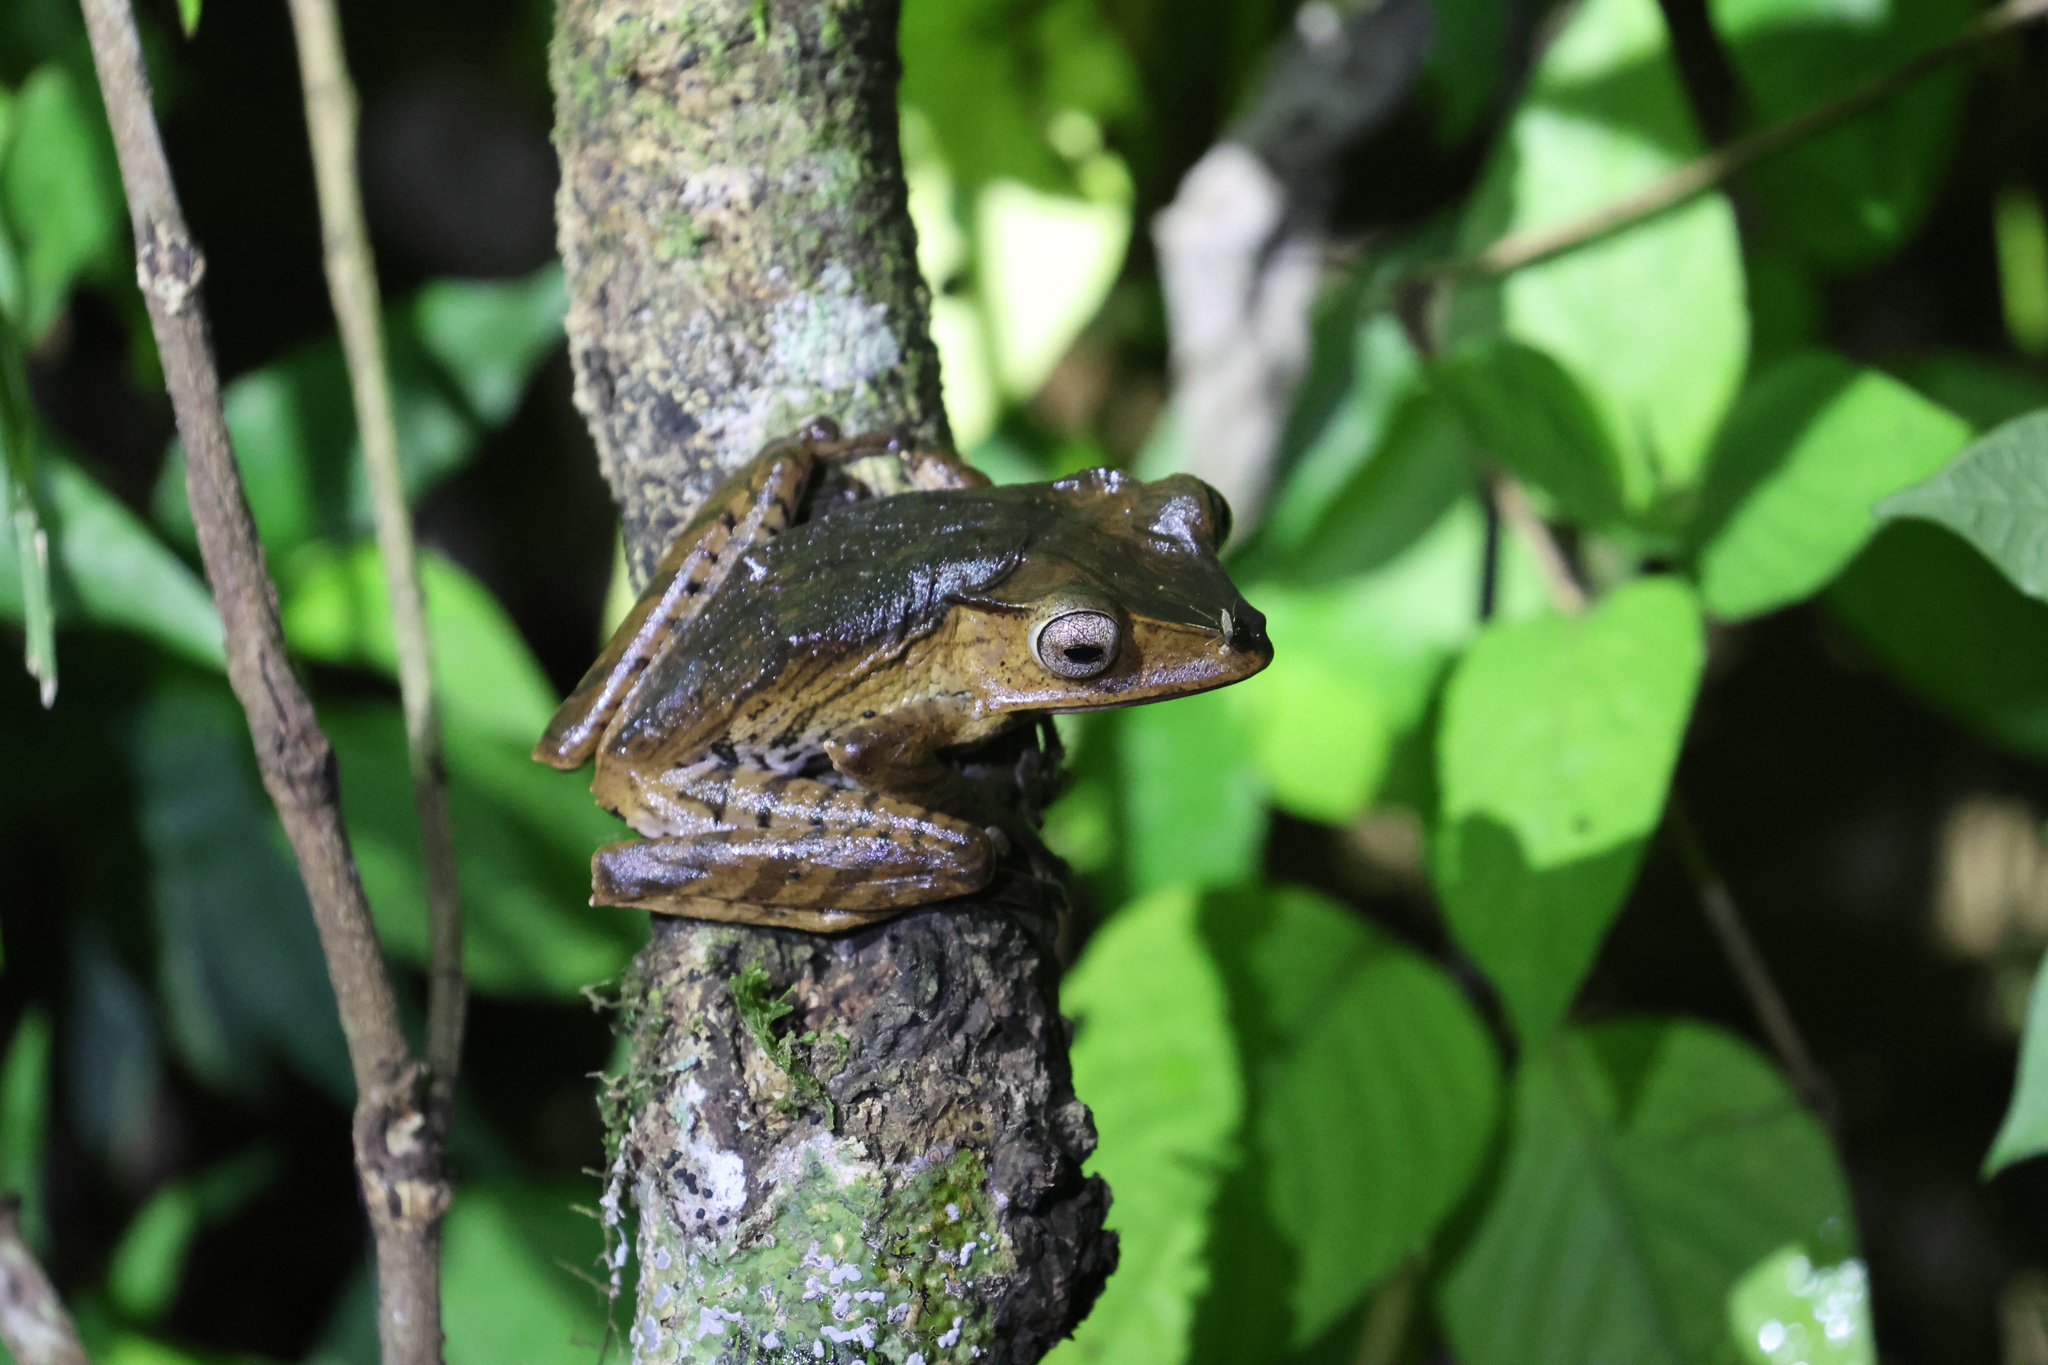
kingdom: Animalia
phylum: Chordata
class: Amphibia
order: Anura
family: Rhacophoridae
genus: Polypedates
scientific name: Polypedates otilophus
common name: File-eared tree frog
